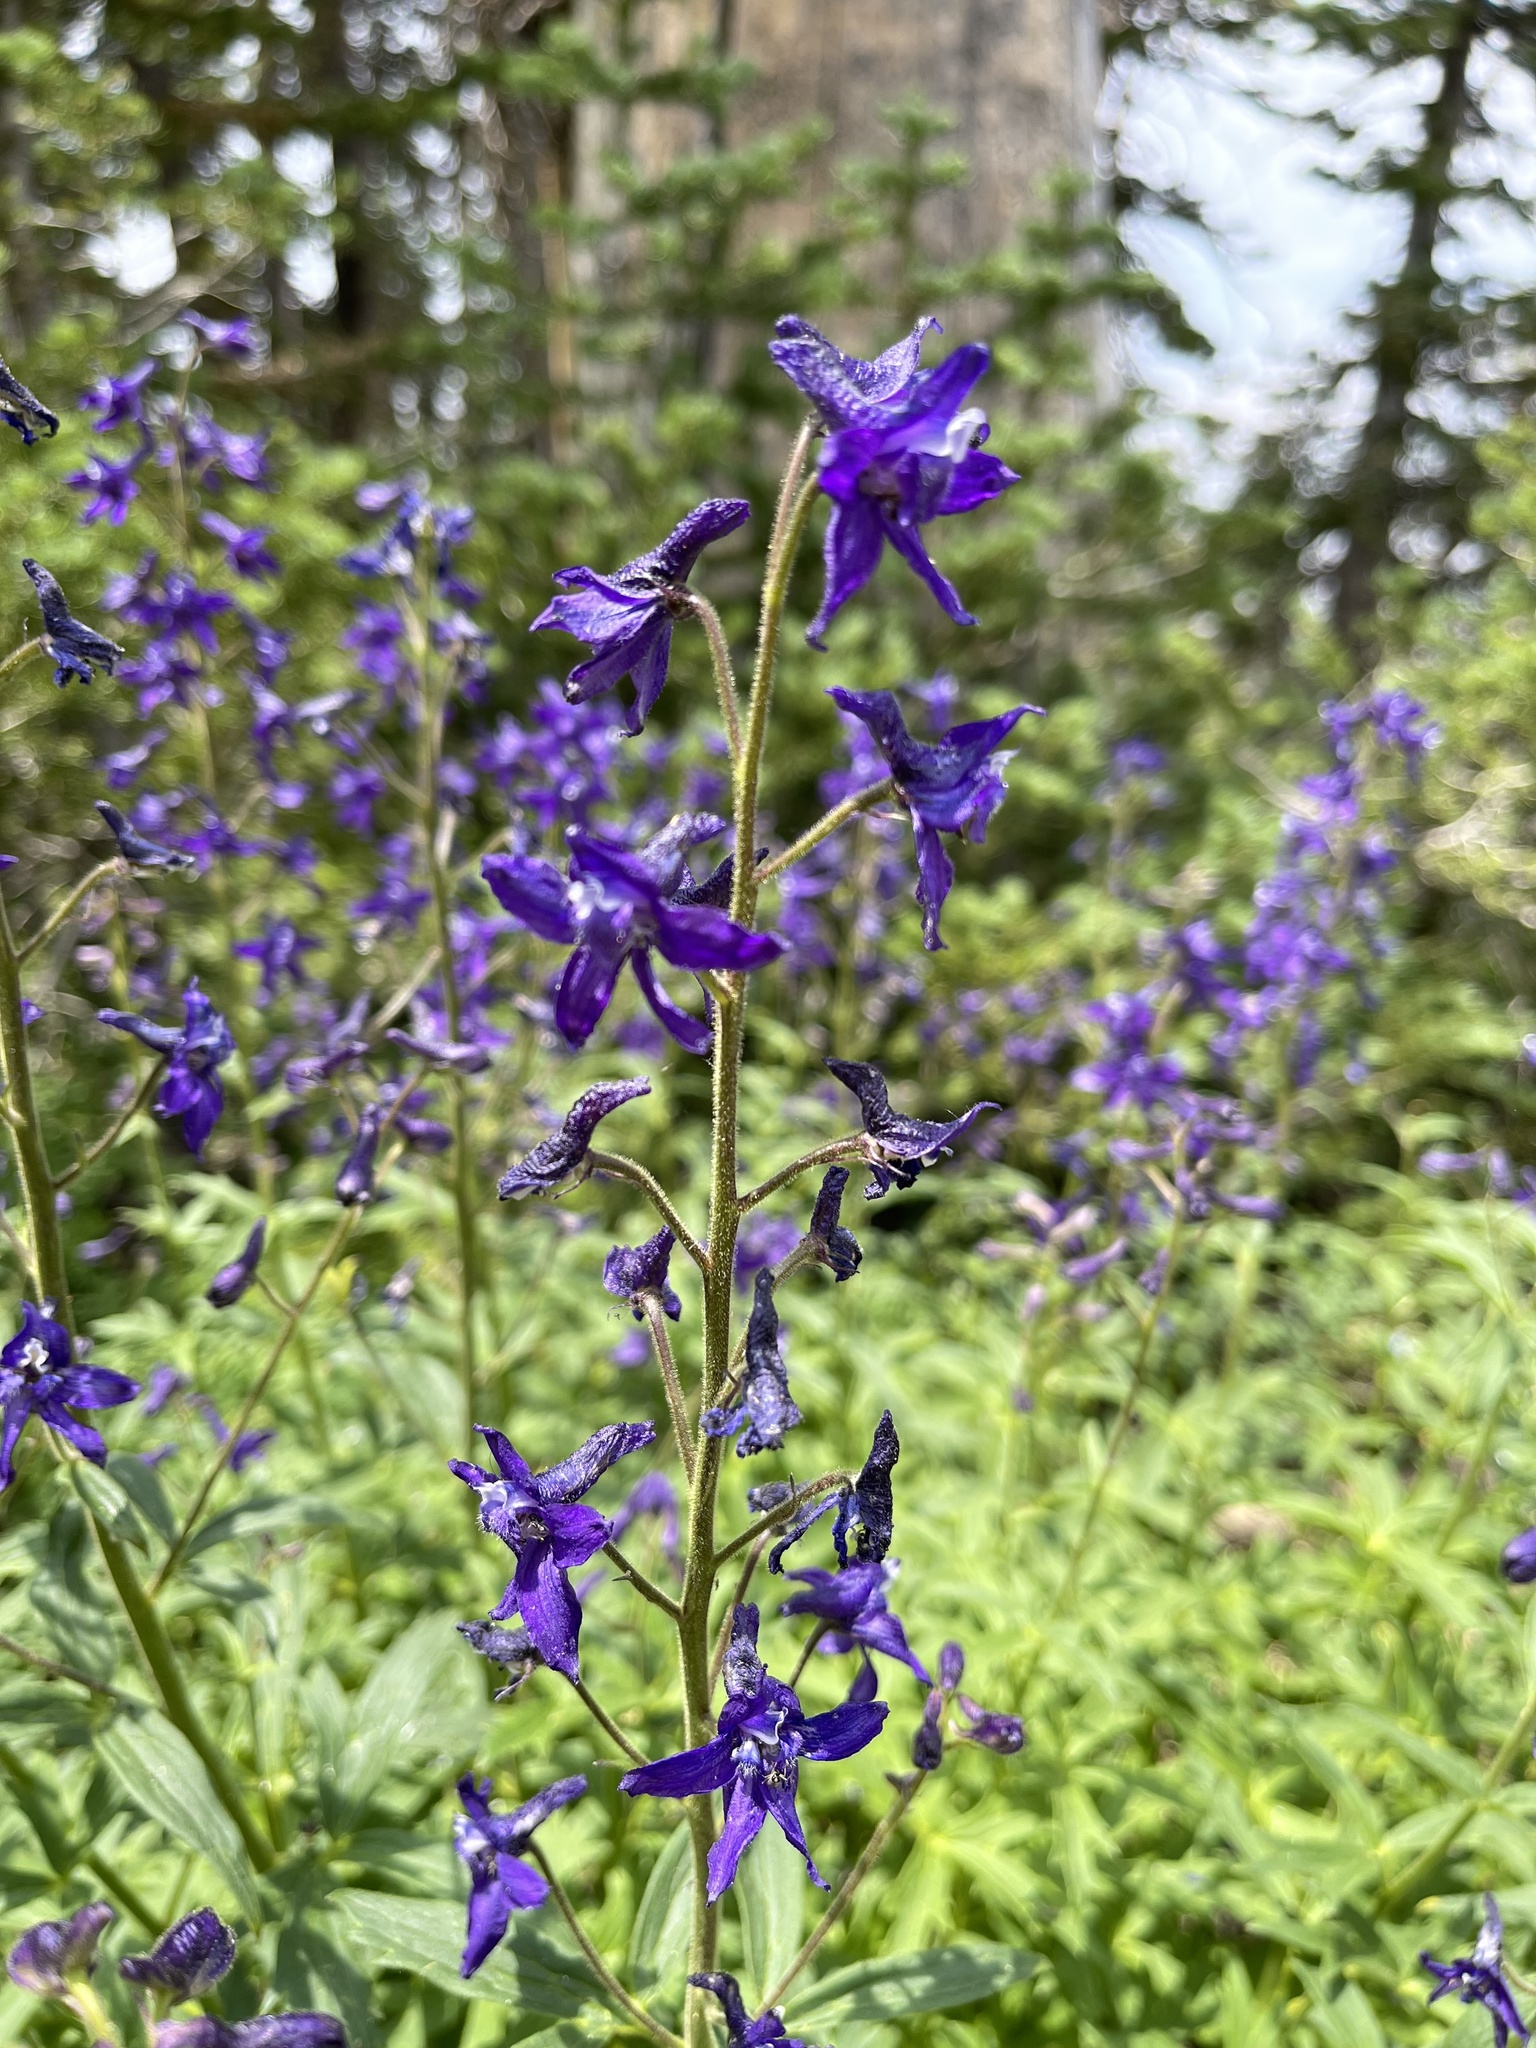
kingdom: Plantae
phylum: Tracheophyta
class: Magnoliopsida
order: Ranunculales
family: Ranunculaceae
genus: Delphinium
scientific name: Delphinium barbeyi
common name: Subalpine larkspur
